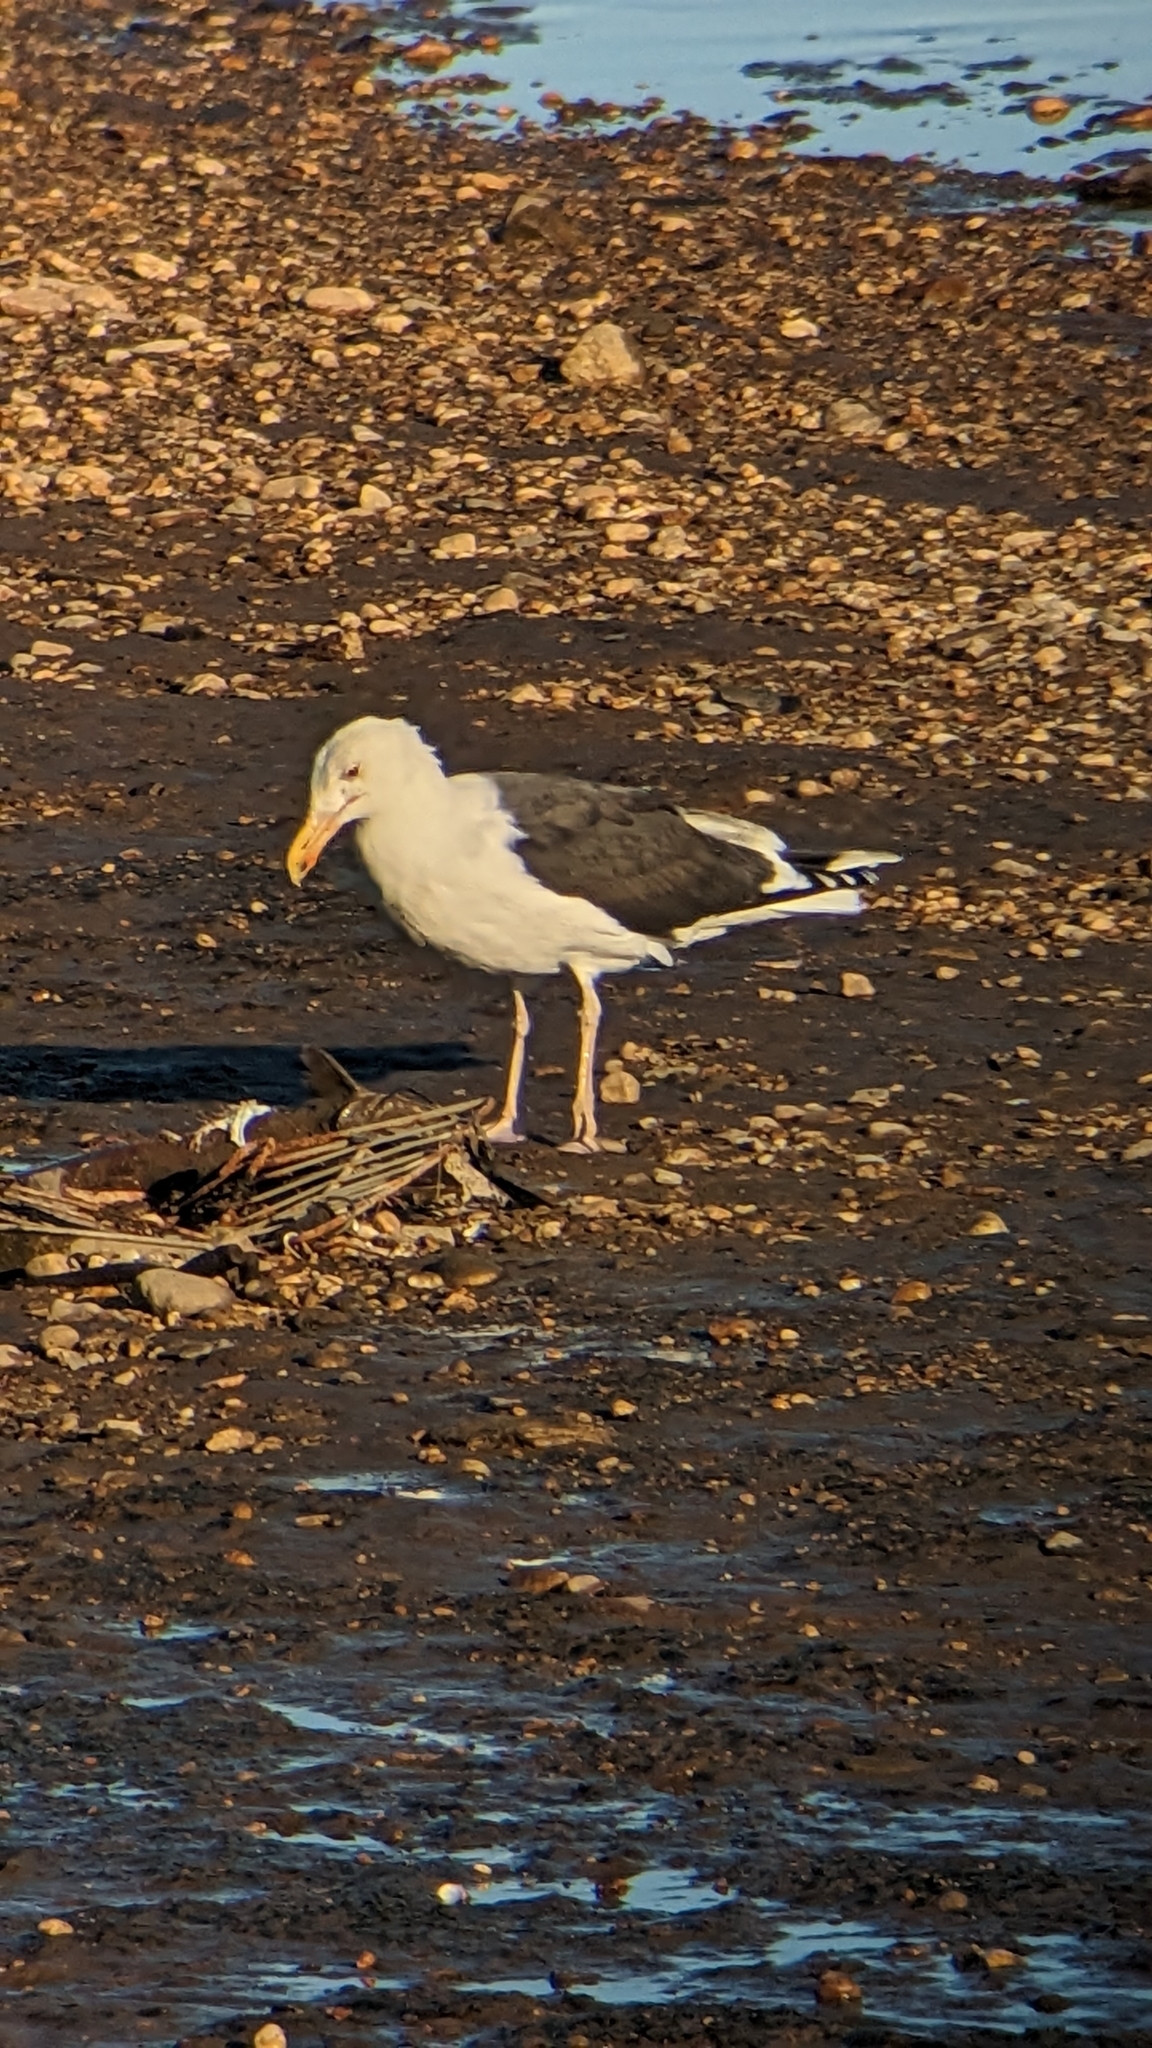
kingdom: Animalia
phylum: Chordata
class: Aves
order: Charadriiformes
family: Laridae
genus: Larus
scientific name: Larus marinus
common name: Great black-backed gull
